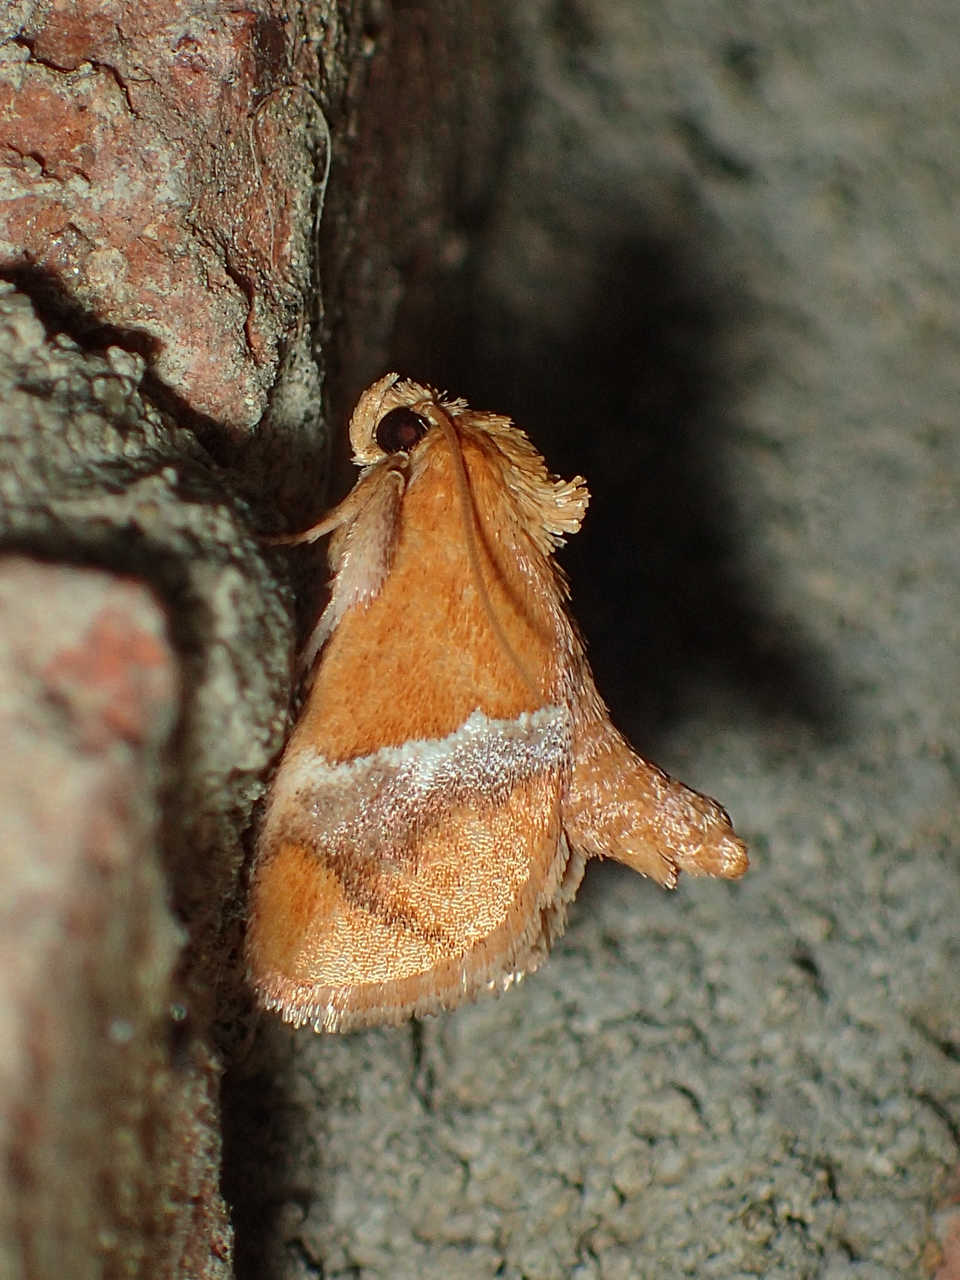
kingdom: Animalia
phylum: Arthropoda
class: Insecta
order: Lepidoptera
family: Limacodidae
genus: Lithacodes
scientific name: Lithacodes fasciola
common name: Yellow-shouldered slug moth
